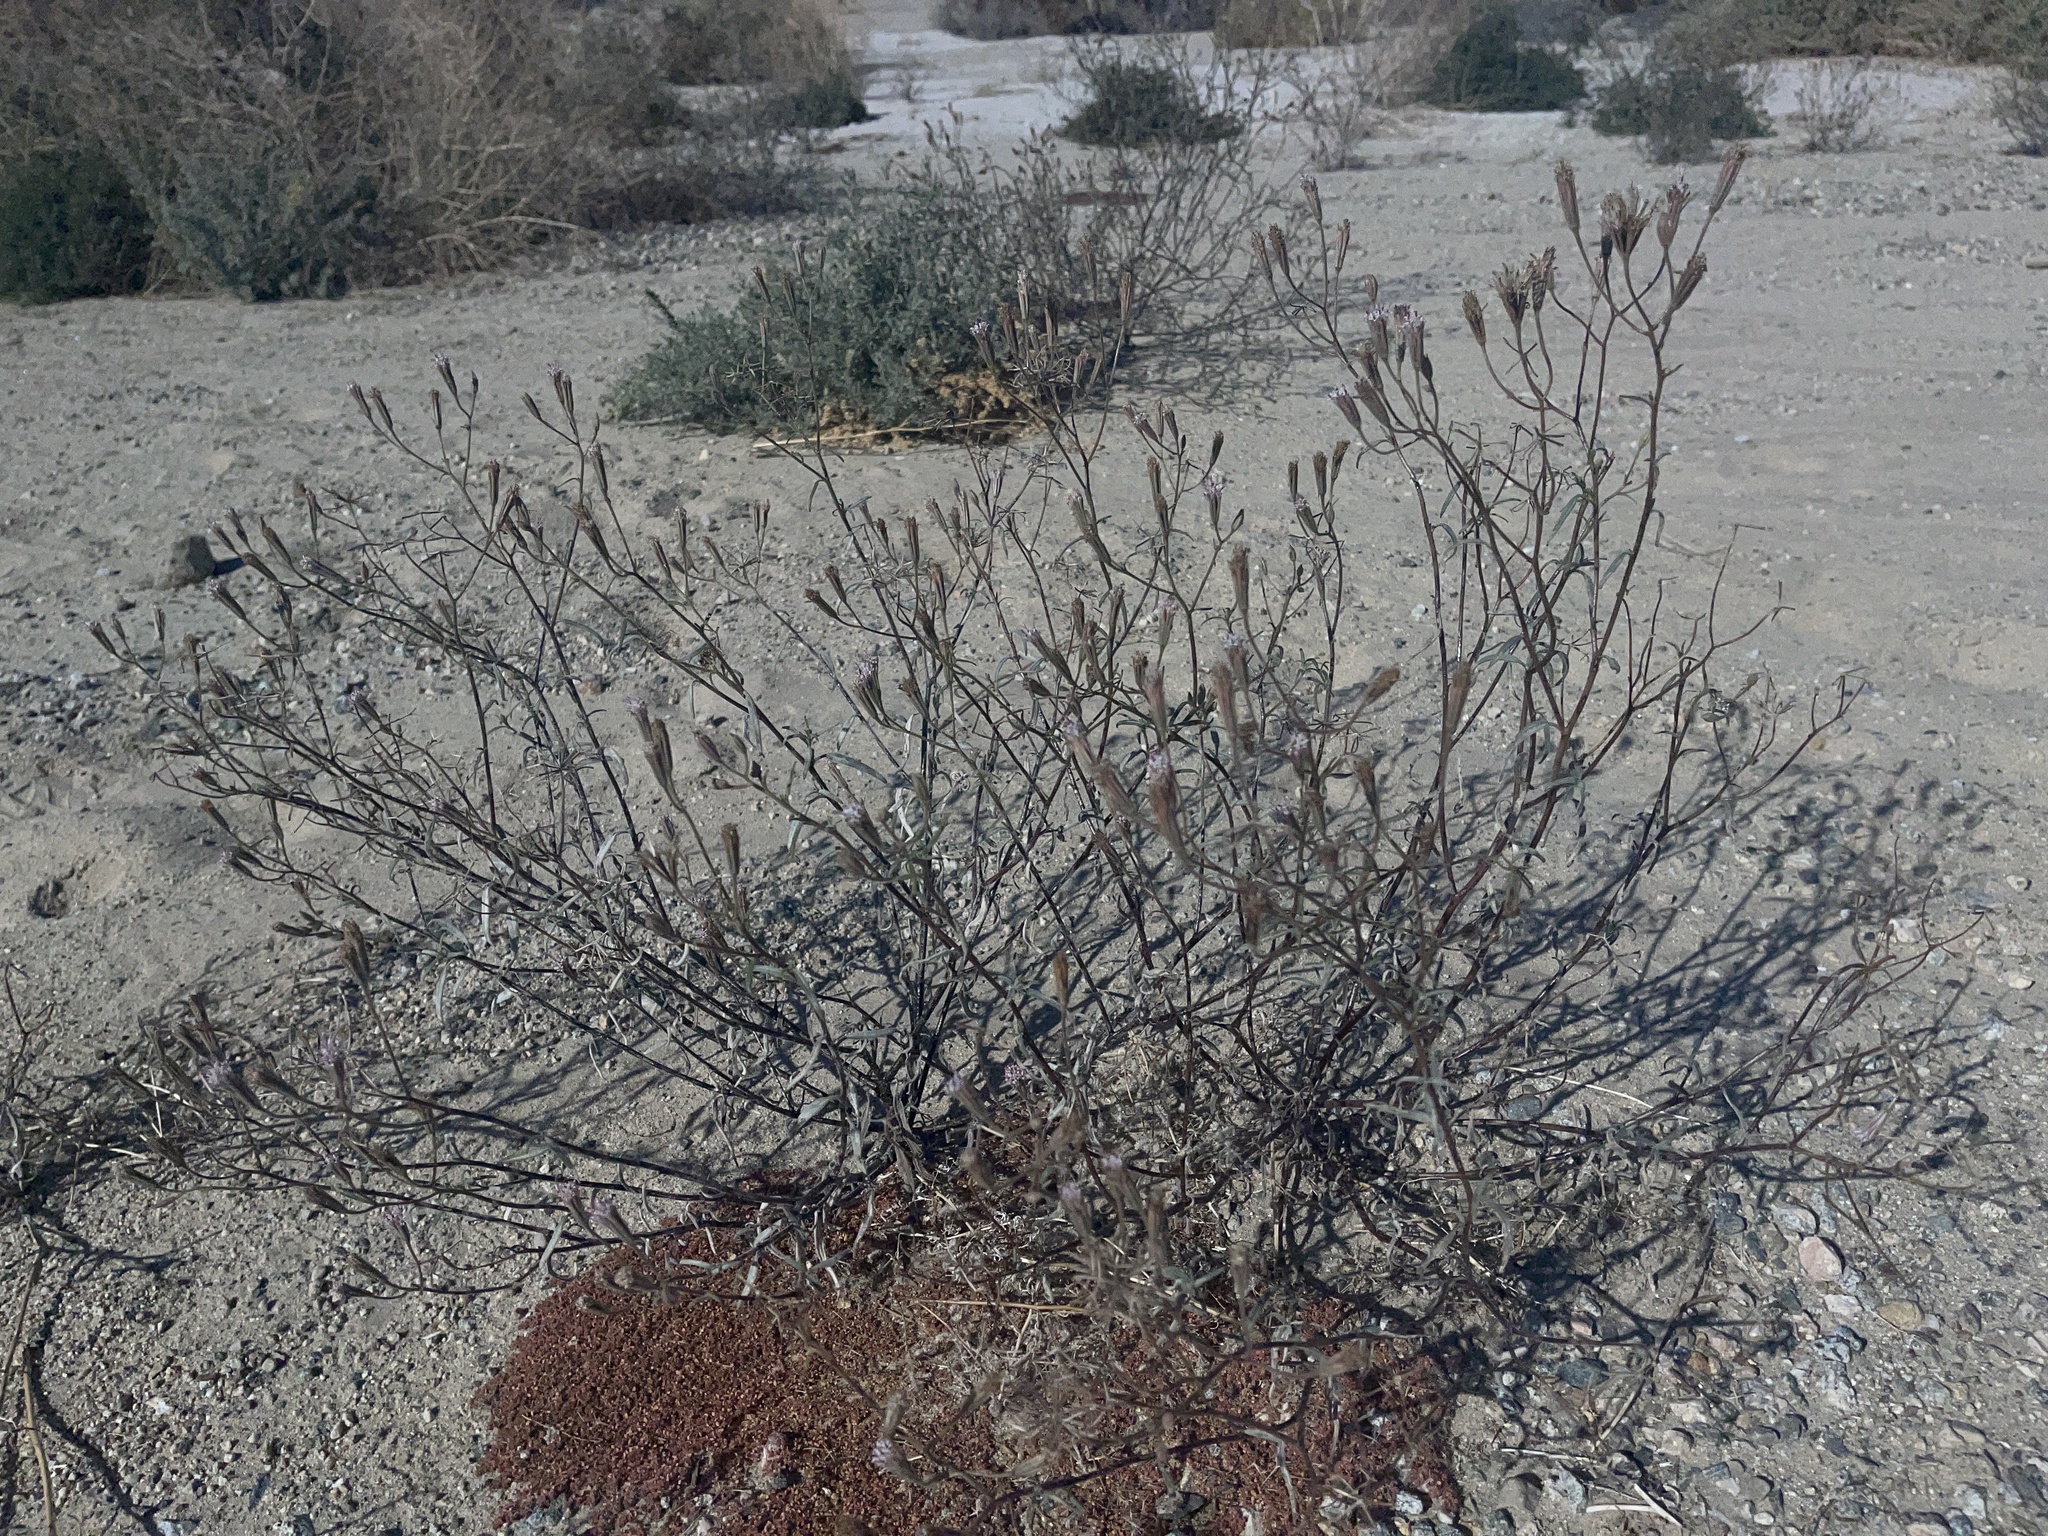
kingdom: Plantae
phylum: Tracheophyta
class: Magnoliopsida
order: Asterales
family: Asteraceae
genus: Palafoxia
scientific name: Palafoxia arida
